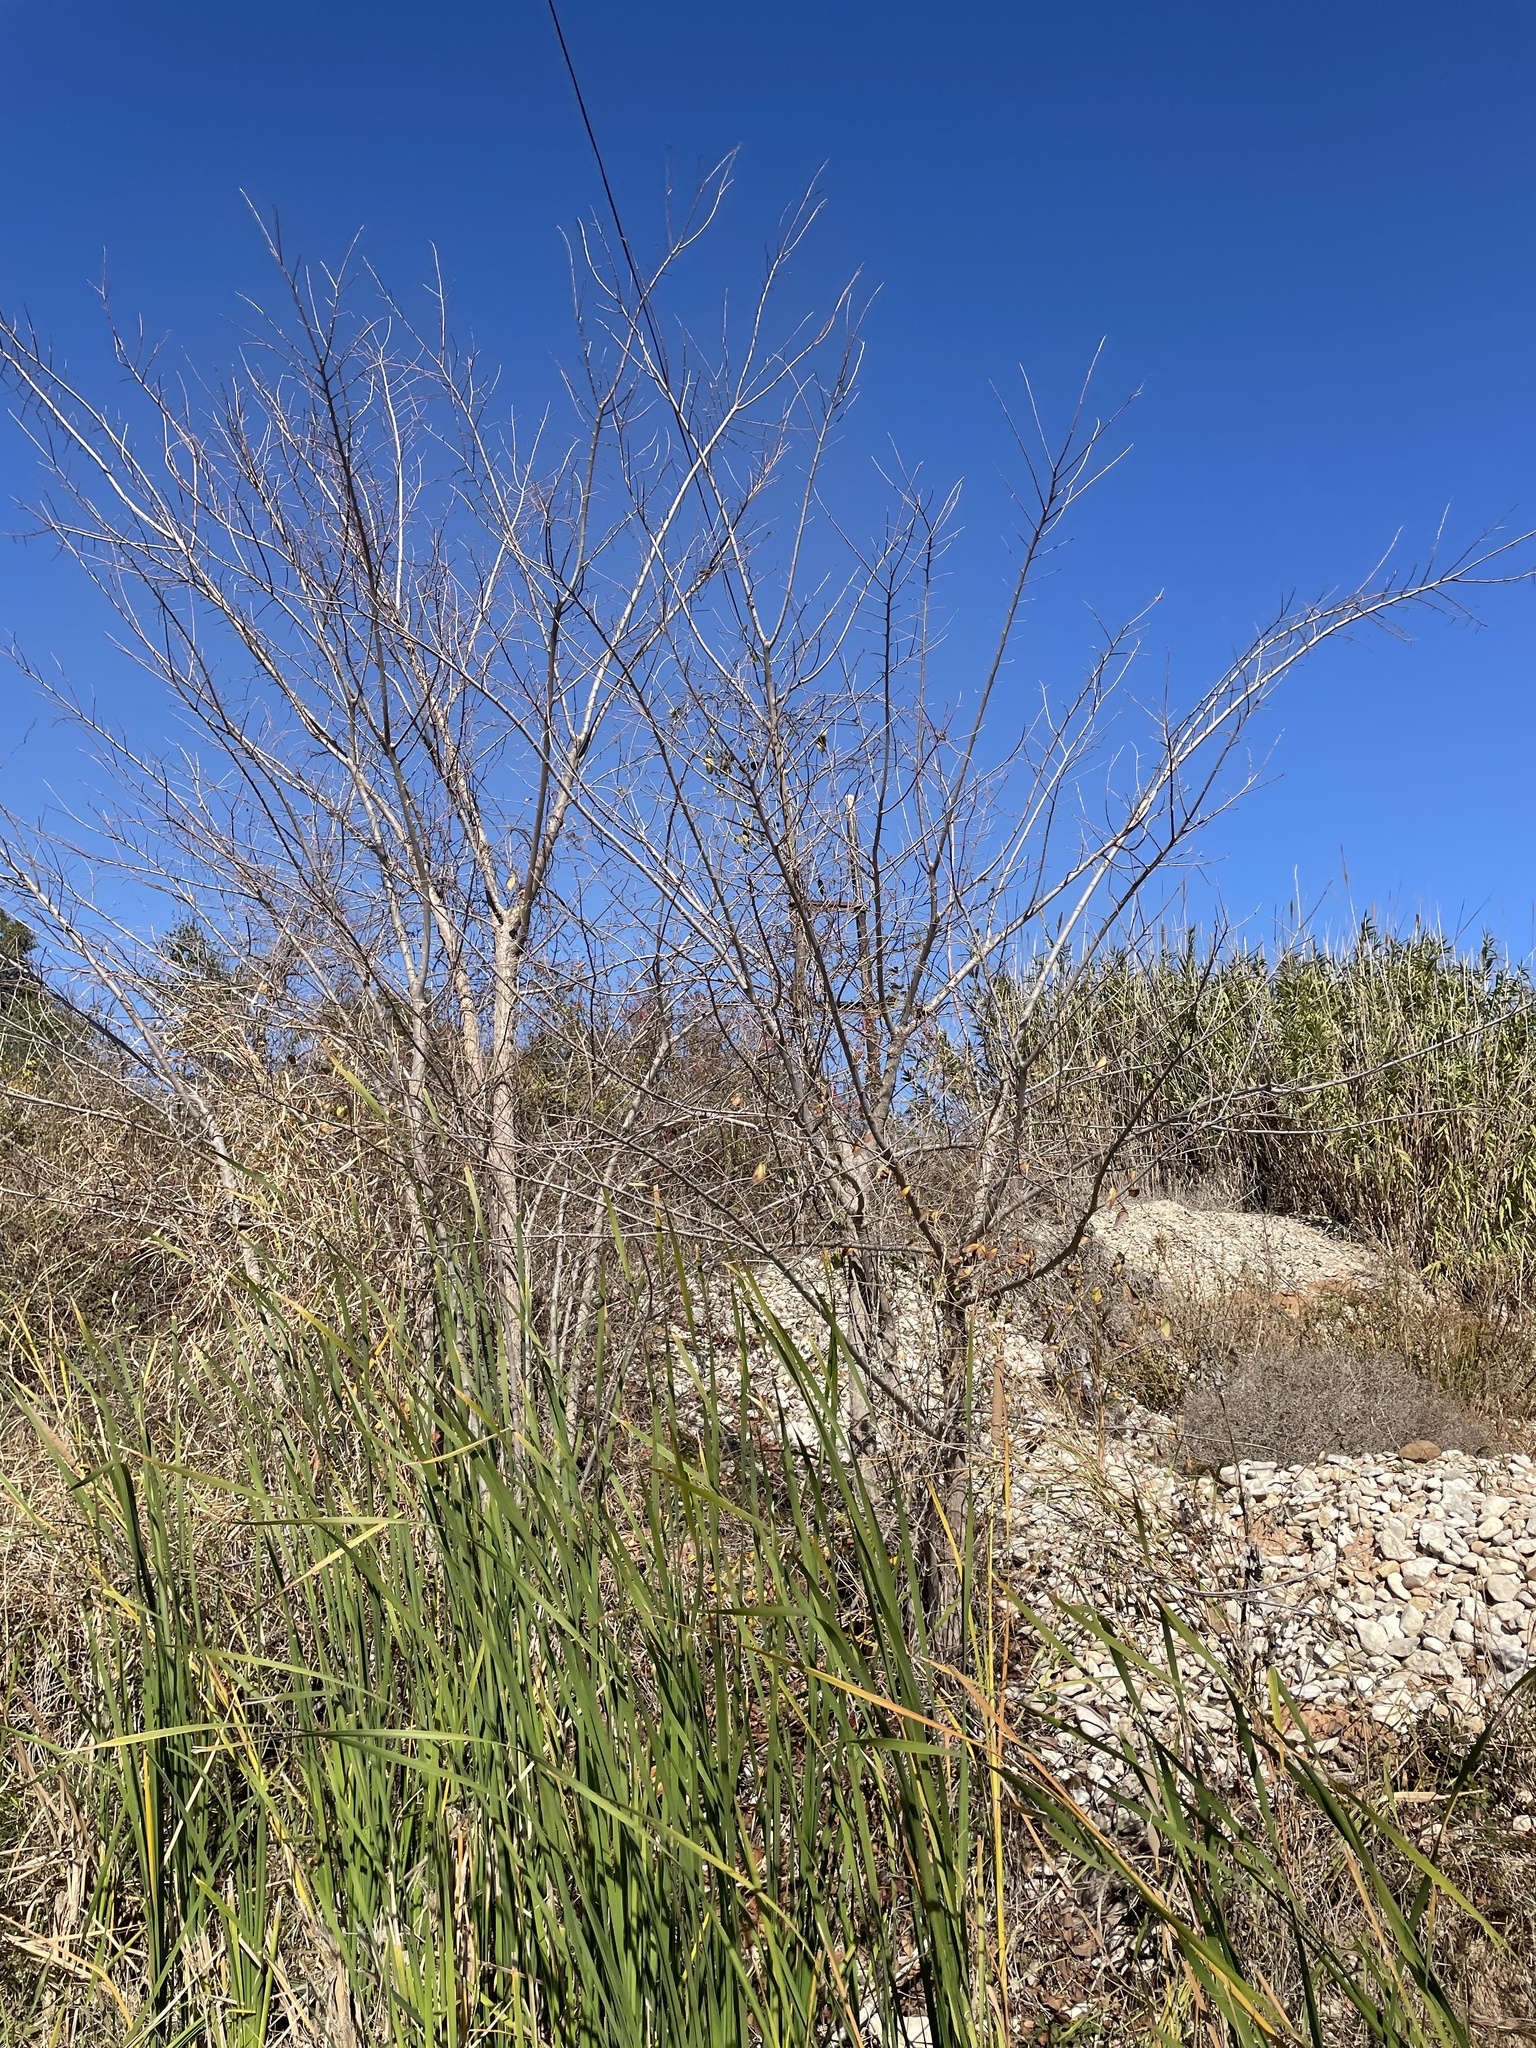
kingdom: Plantae
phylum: Tracheophyta
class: Magnoliopsida
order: Rosales
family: Ulmaceae
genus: Ulmus
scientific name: Ulmus americana
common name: American elm
